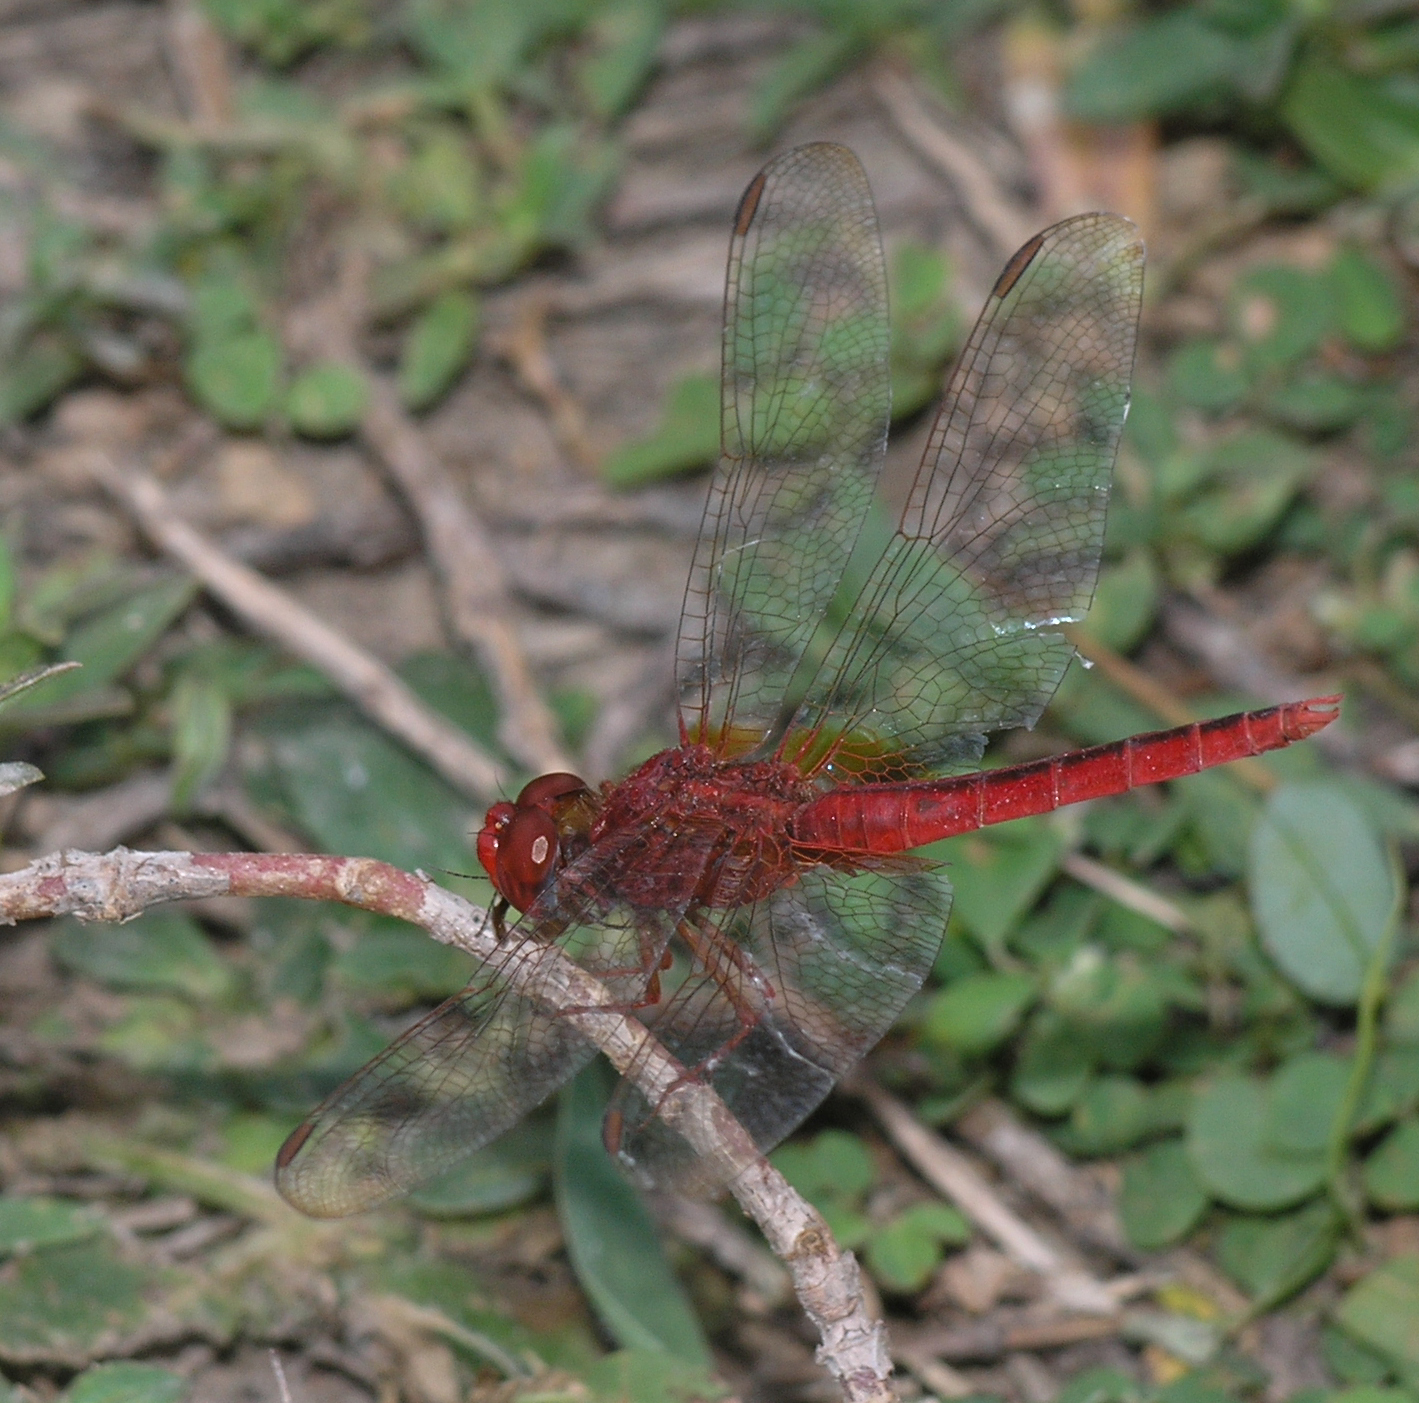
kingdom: Animalia
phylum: Arthropoda
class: Insecta
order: Odonata
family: Libellulidae
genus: Crocothemis
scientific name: Crocothemis servilia
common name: Scarlet skimmer
